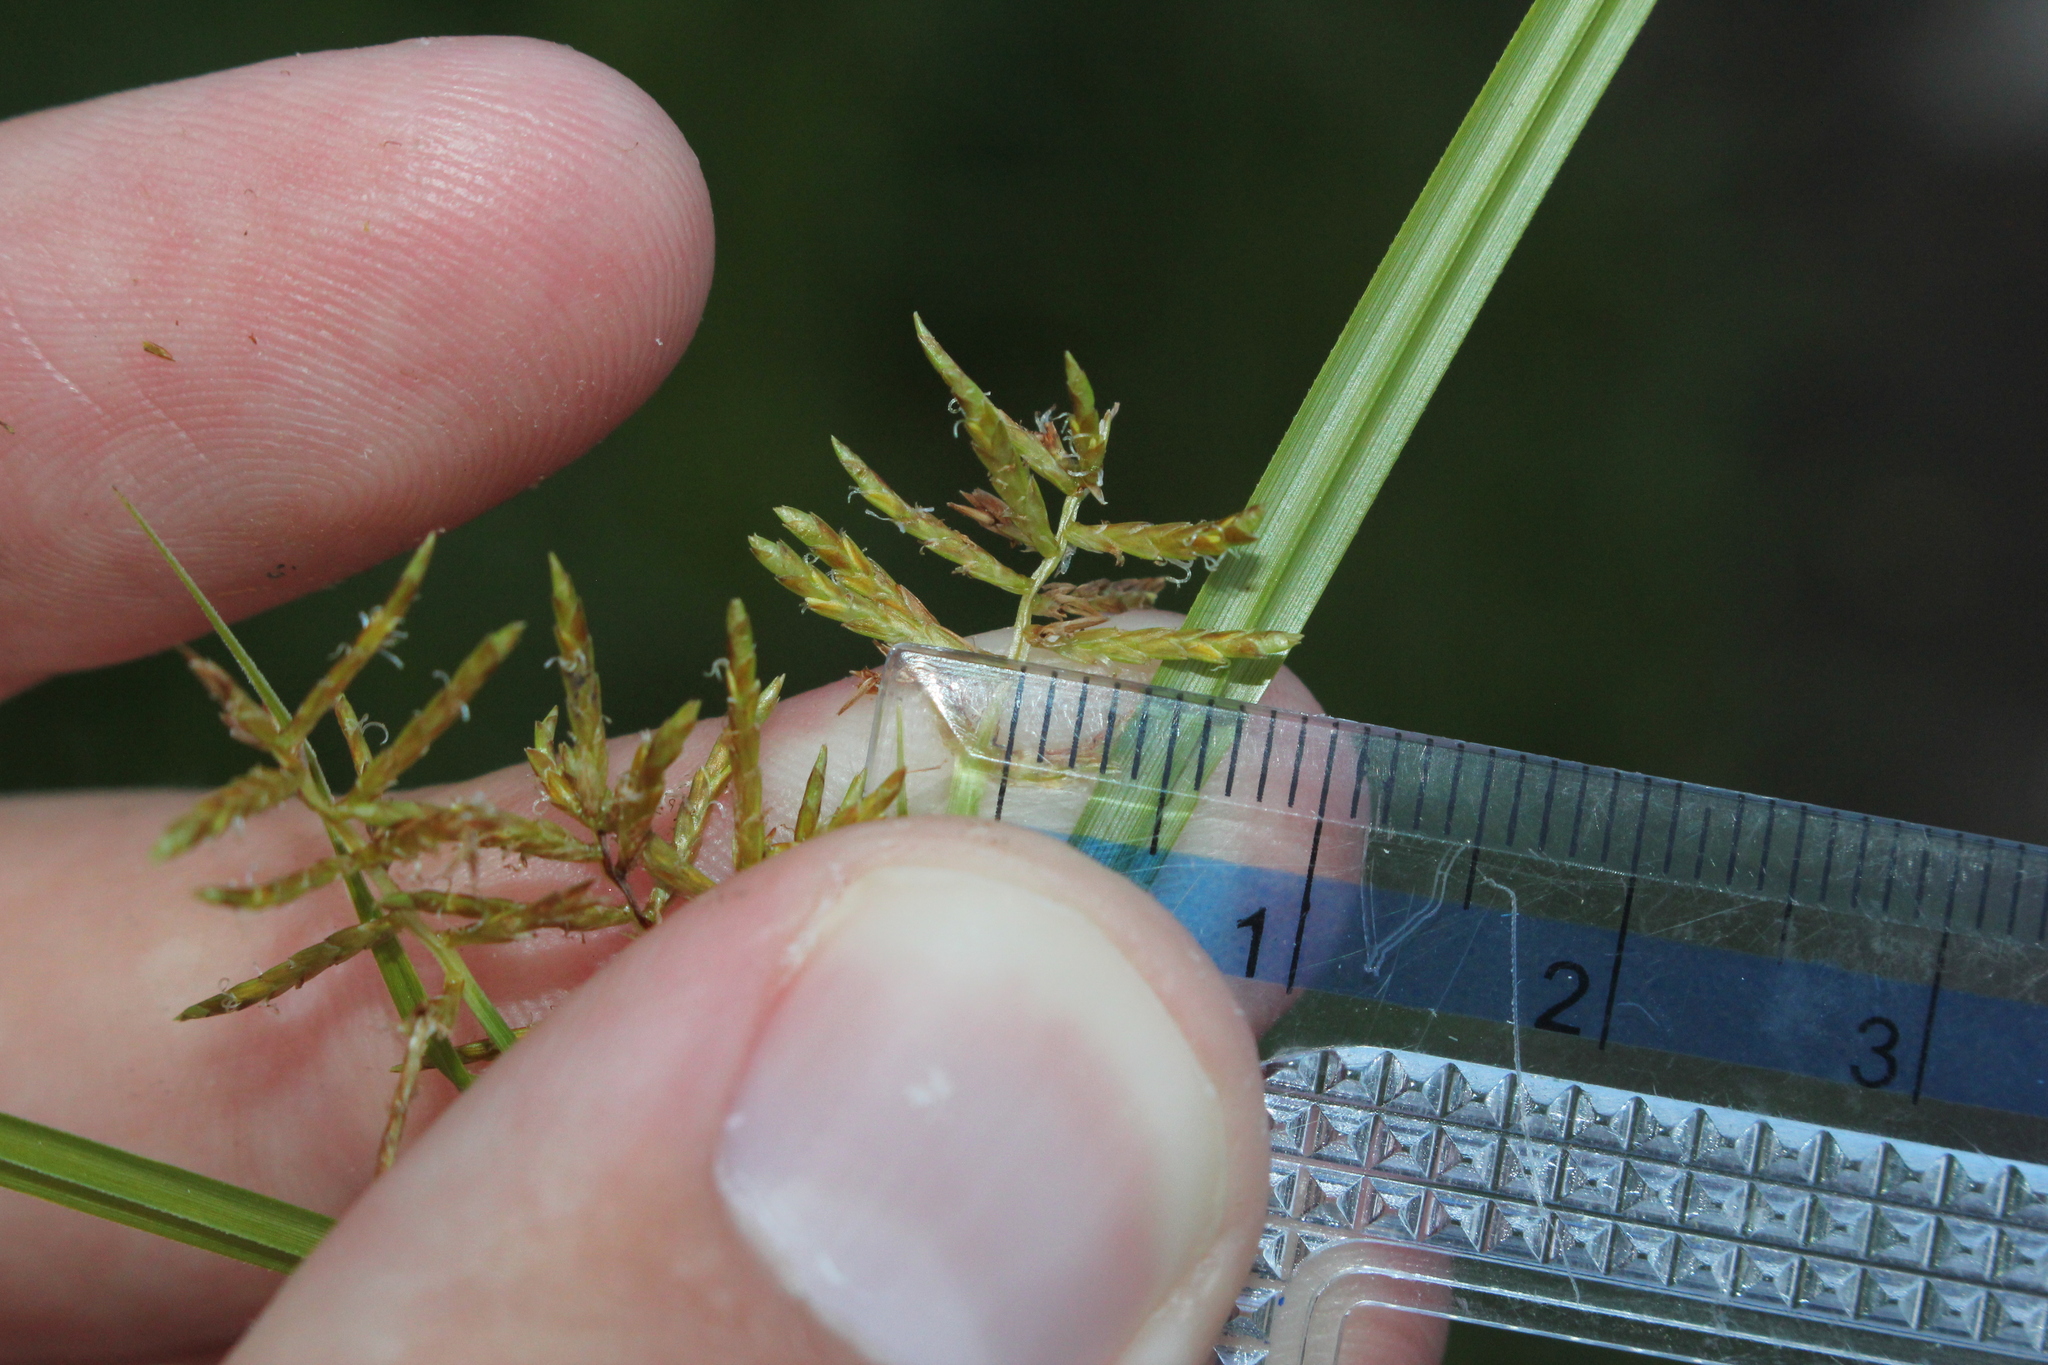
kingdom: Plantae
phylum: Tracheophyta
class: Liliopsida
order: Poales
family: Cyperaceae
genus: Cyperus
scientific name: Cyperus esculentus
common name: Yellow nutsedge
